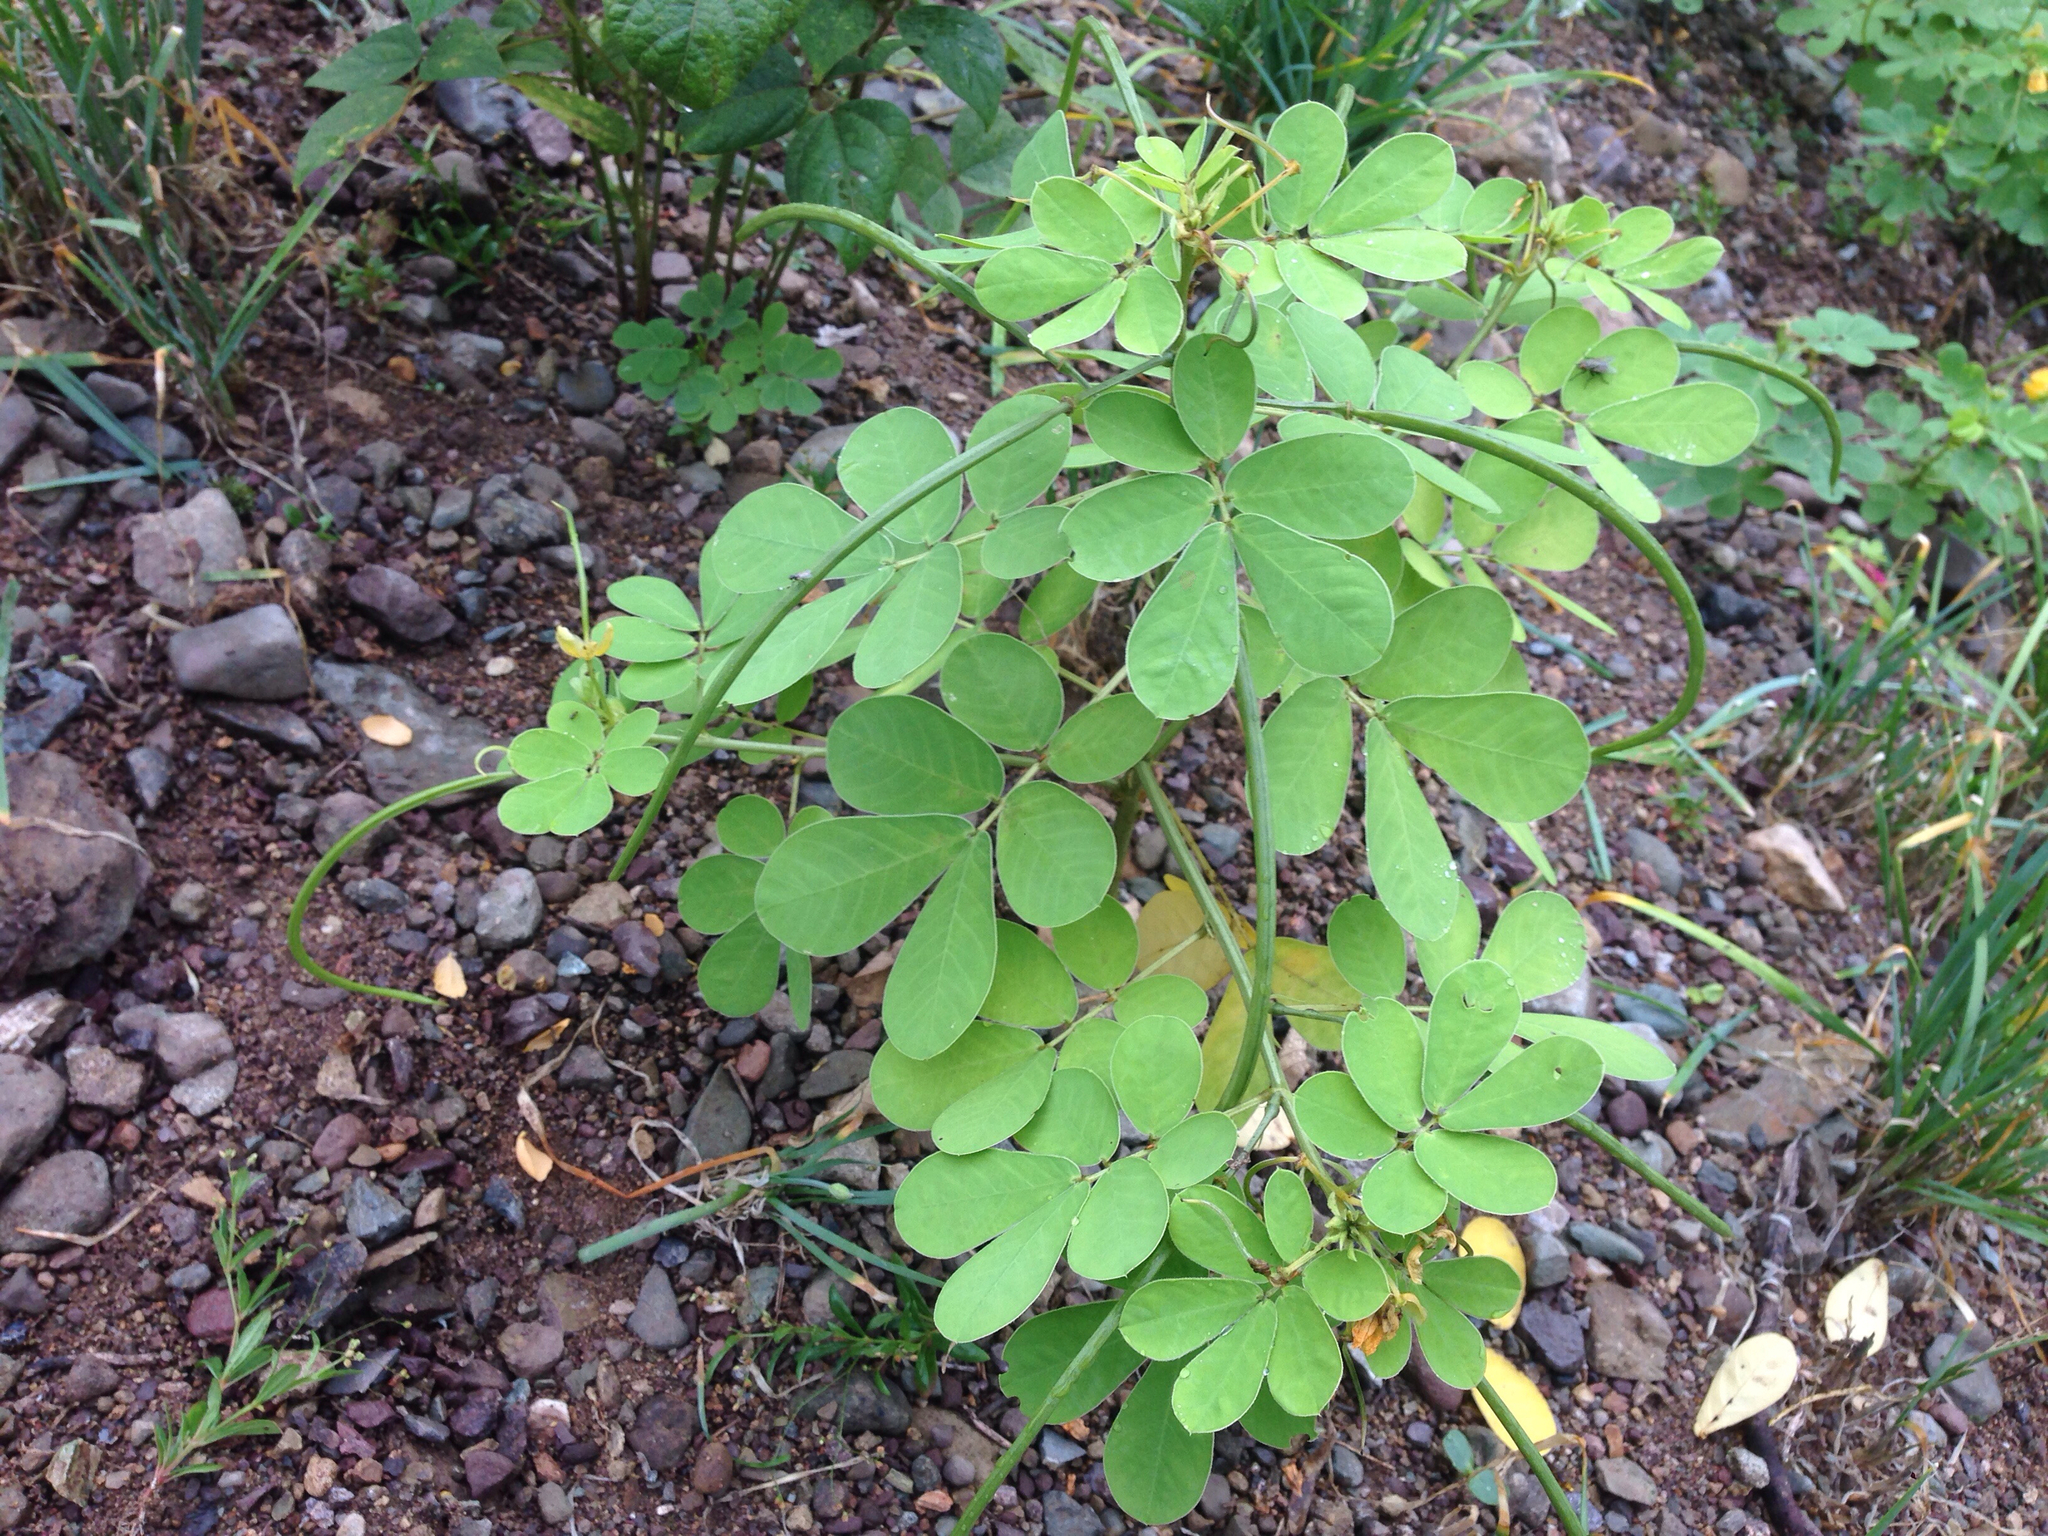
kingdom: Plantae
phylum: Tracheophyta
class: Magnoliopsida
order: Fabales
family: Fabaceae
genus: Senna
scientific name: Senna obtusifolia
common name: Java-bean
